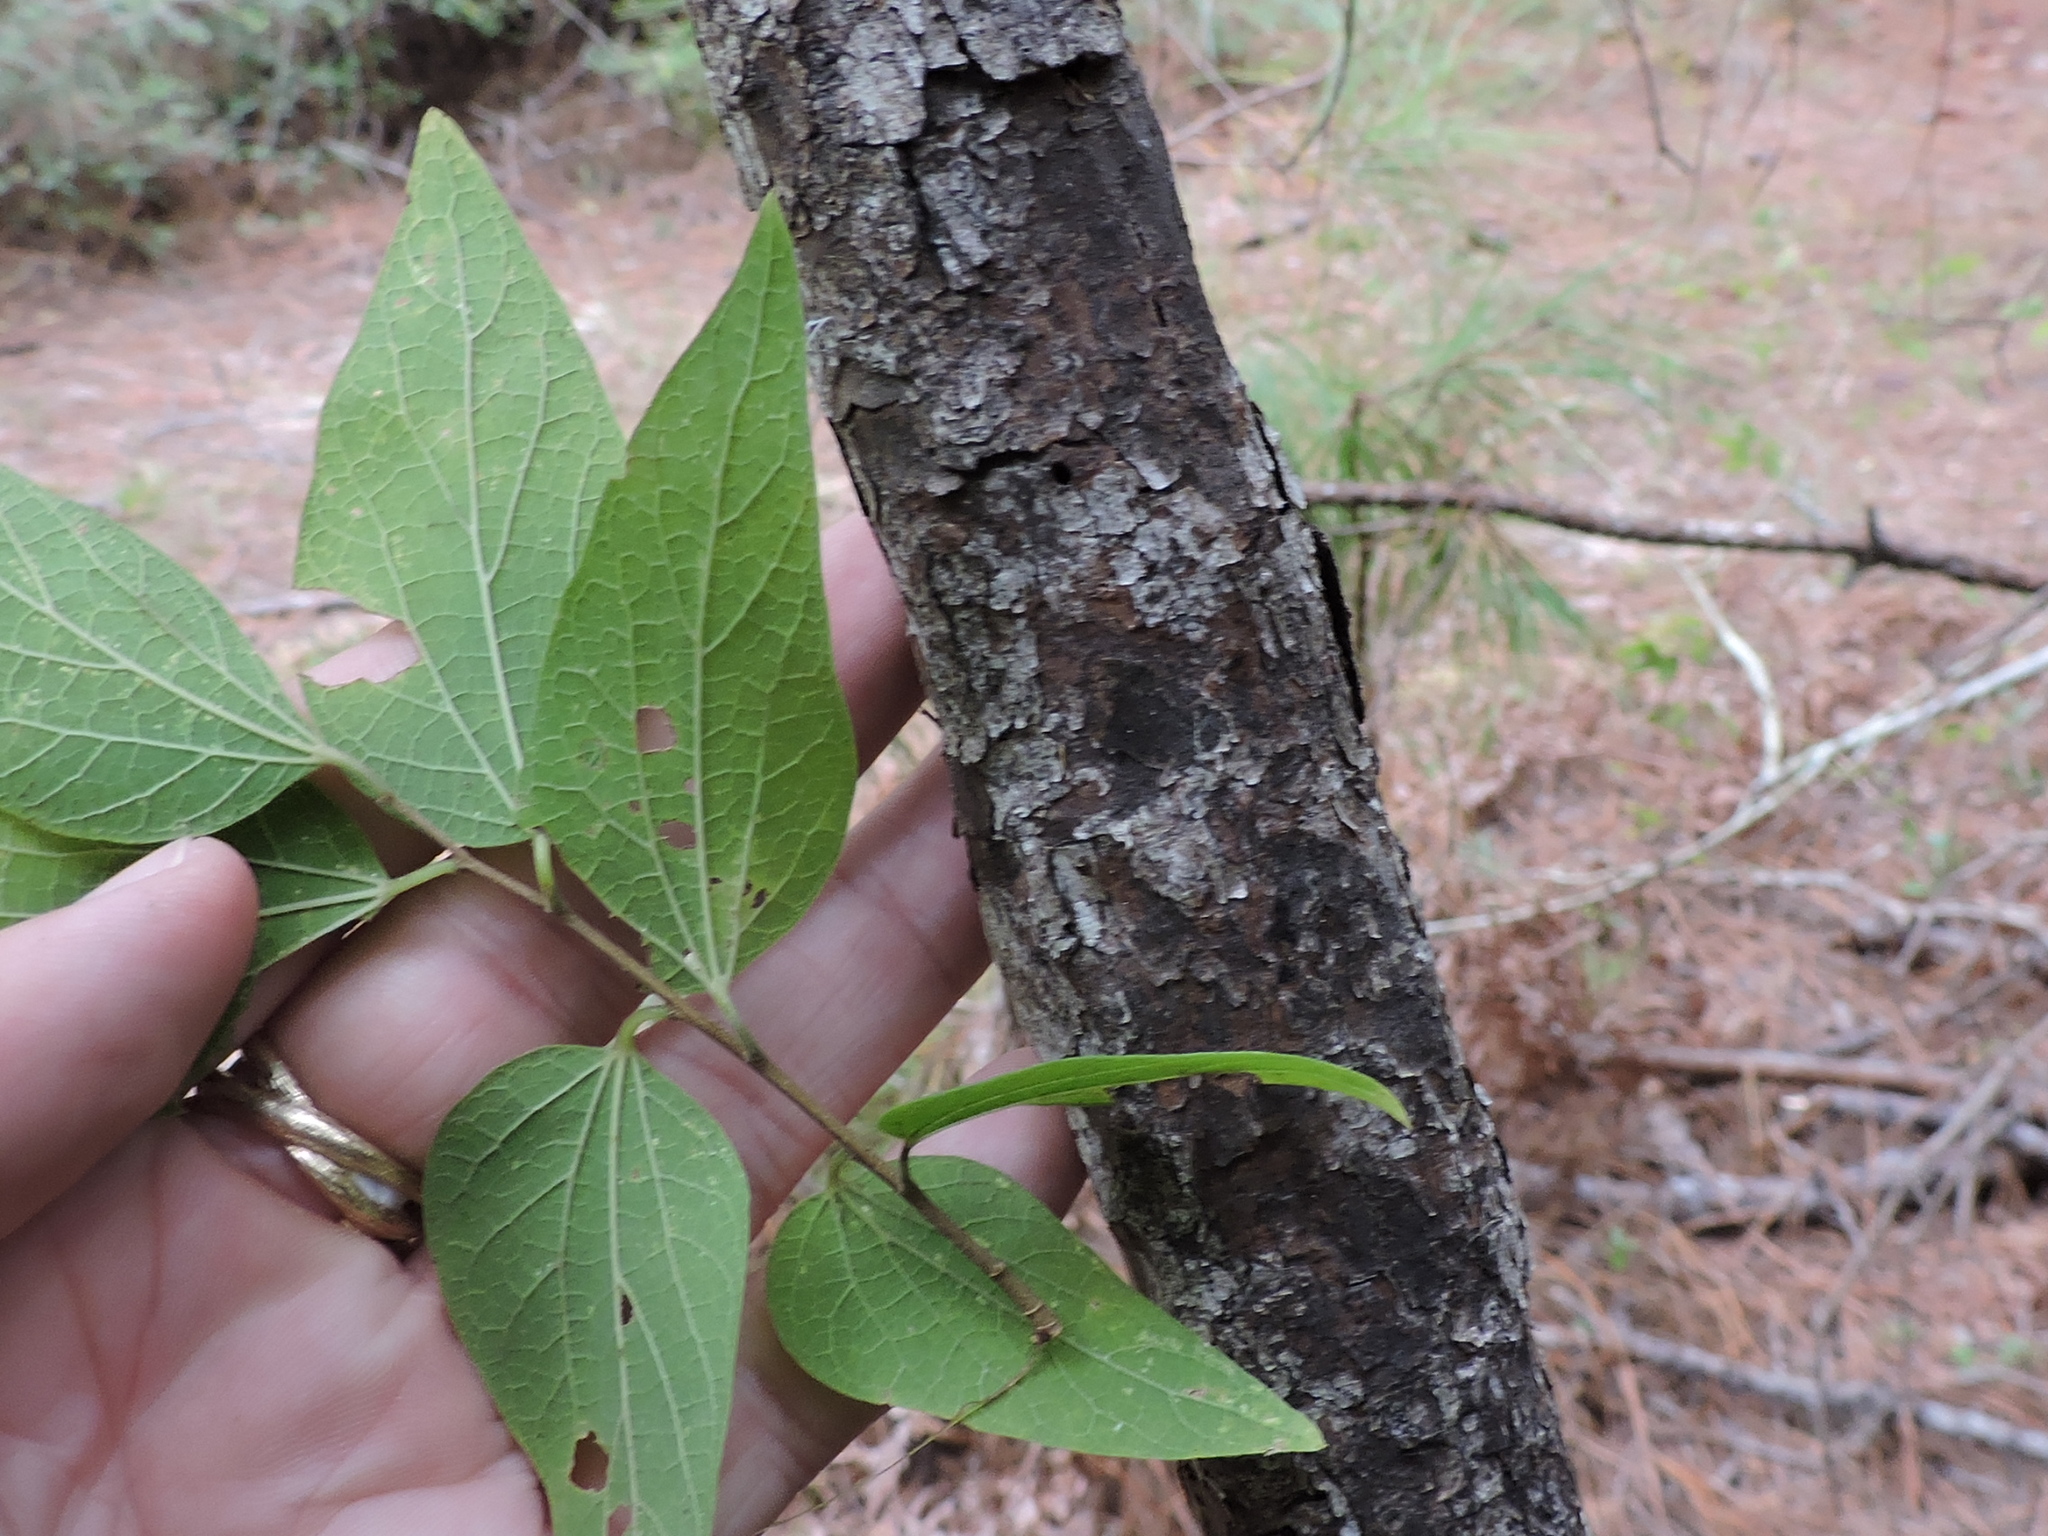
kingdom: Plantae
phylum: Tracheophyta
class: Magnoliopsida
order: Rosales
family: Cannabaceae
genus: Celtis
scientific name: Celtis laevigata
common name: Sugarberry
